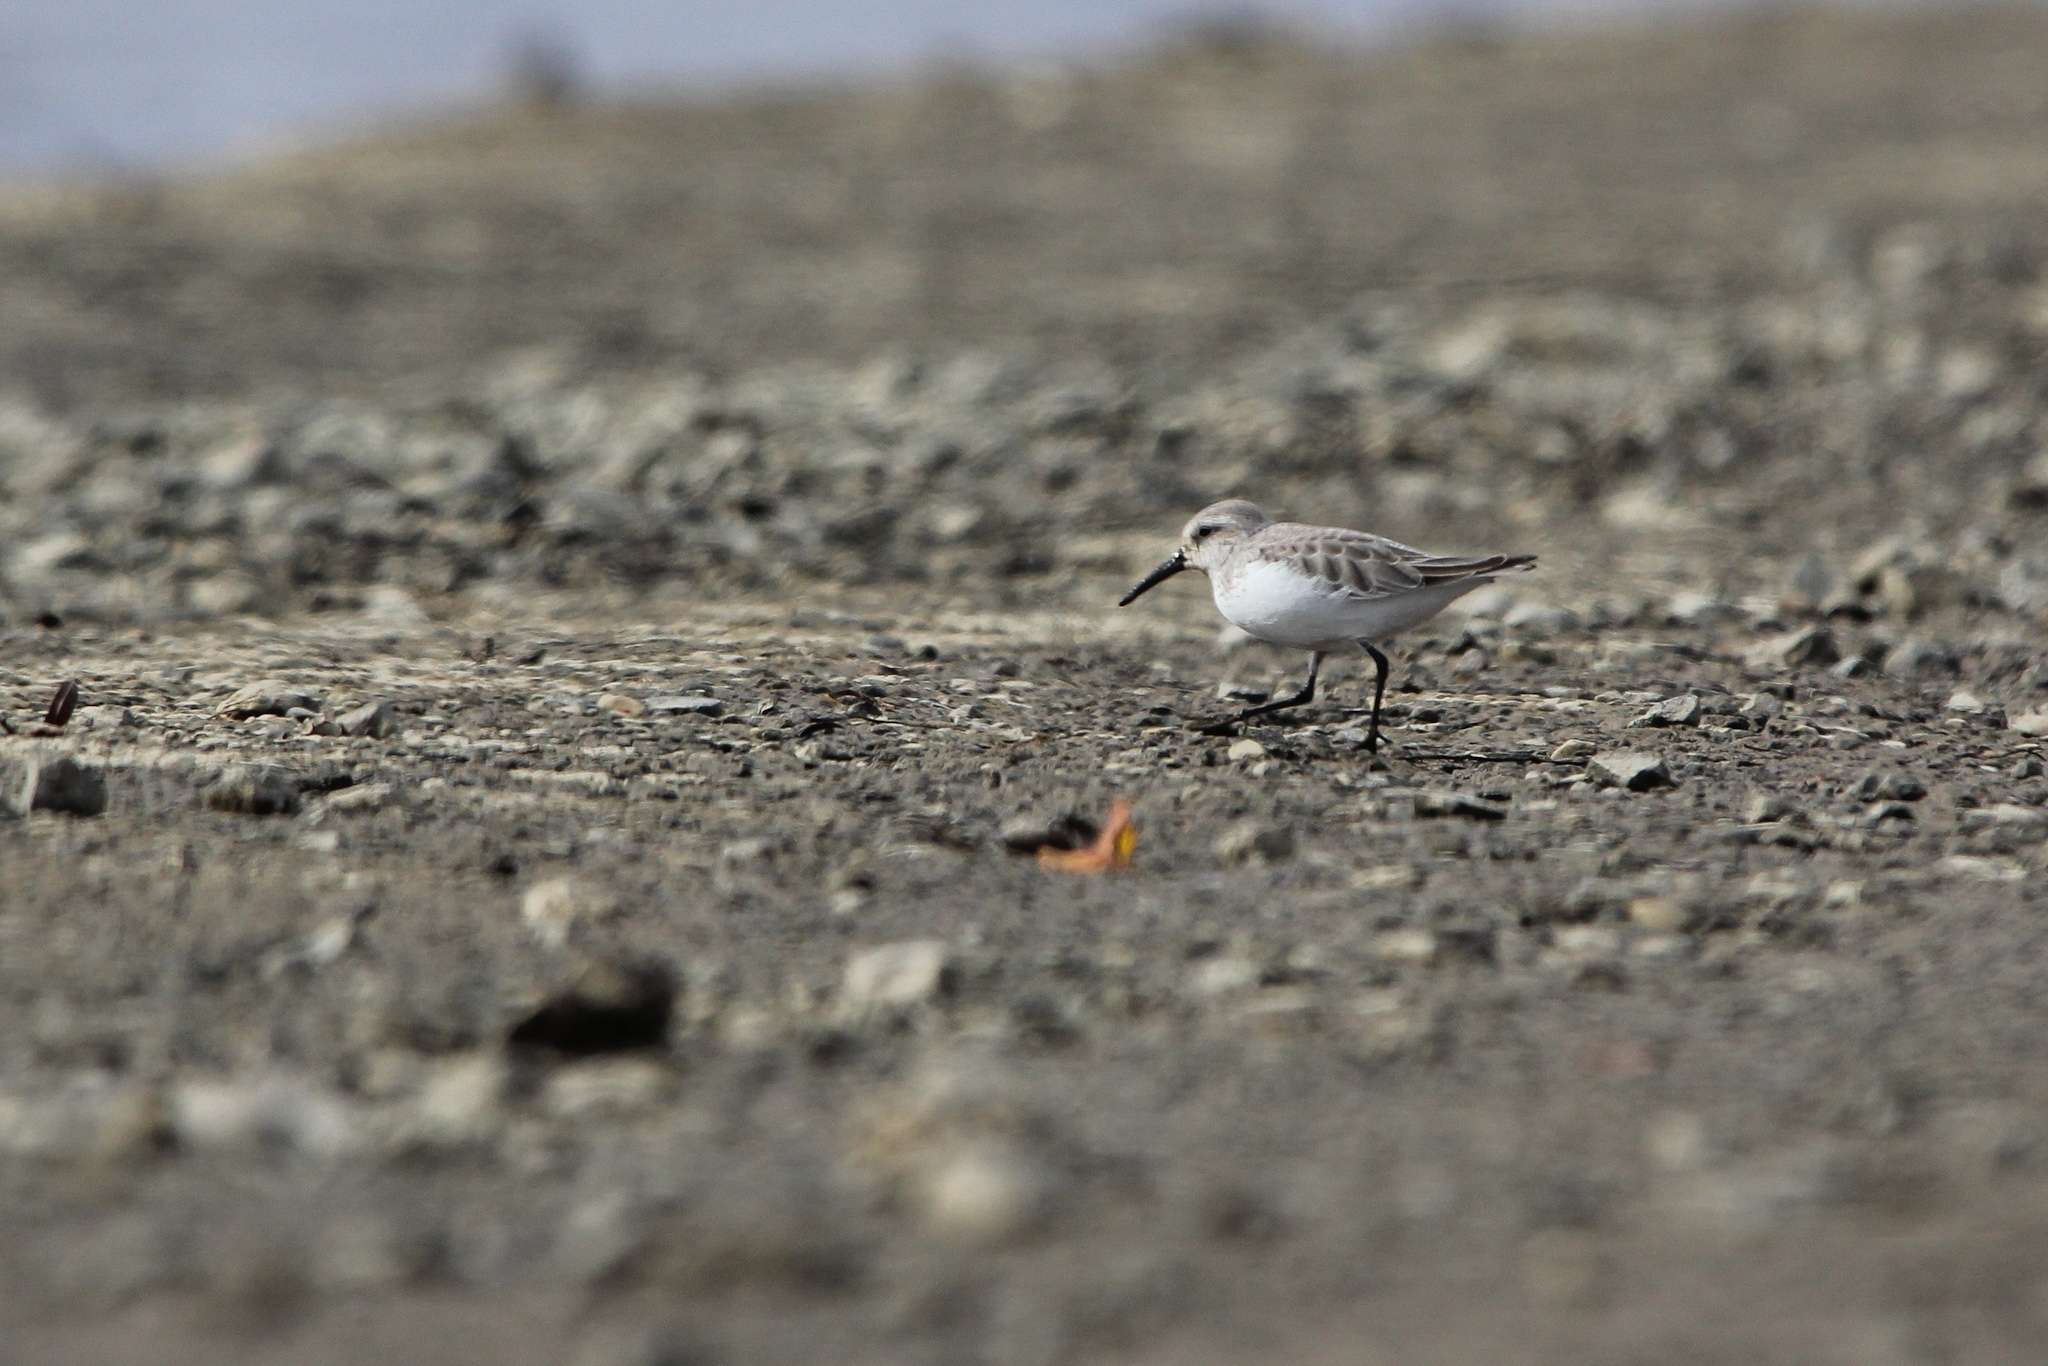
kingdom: Animalia
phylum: Chordata
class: Aves
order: Charadriiformes
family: Scolopacidae
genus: Calidris
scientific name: Calidris mauri
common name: Western sandpiper
